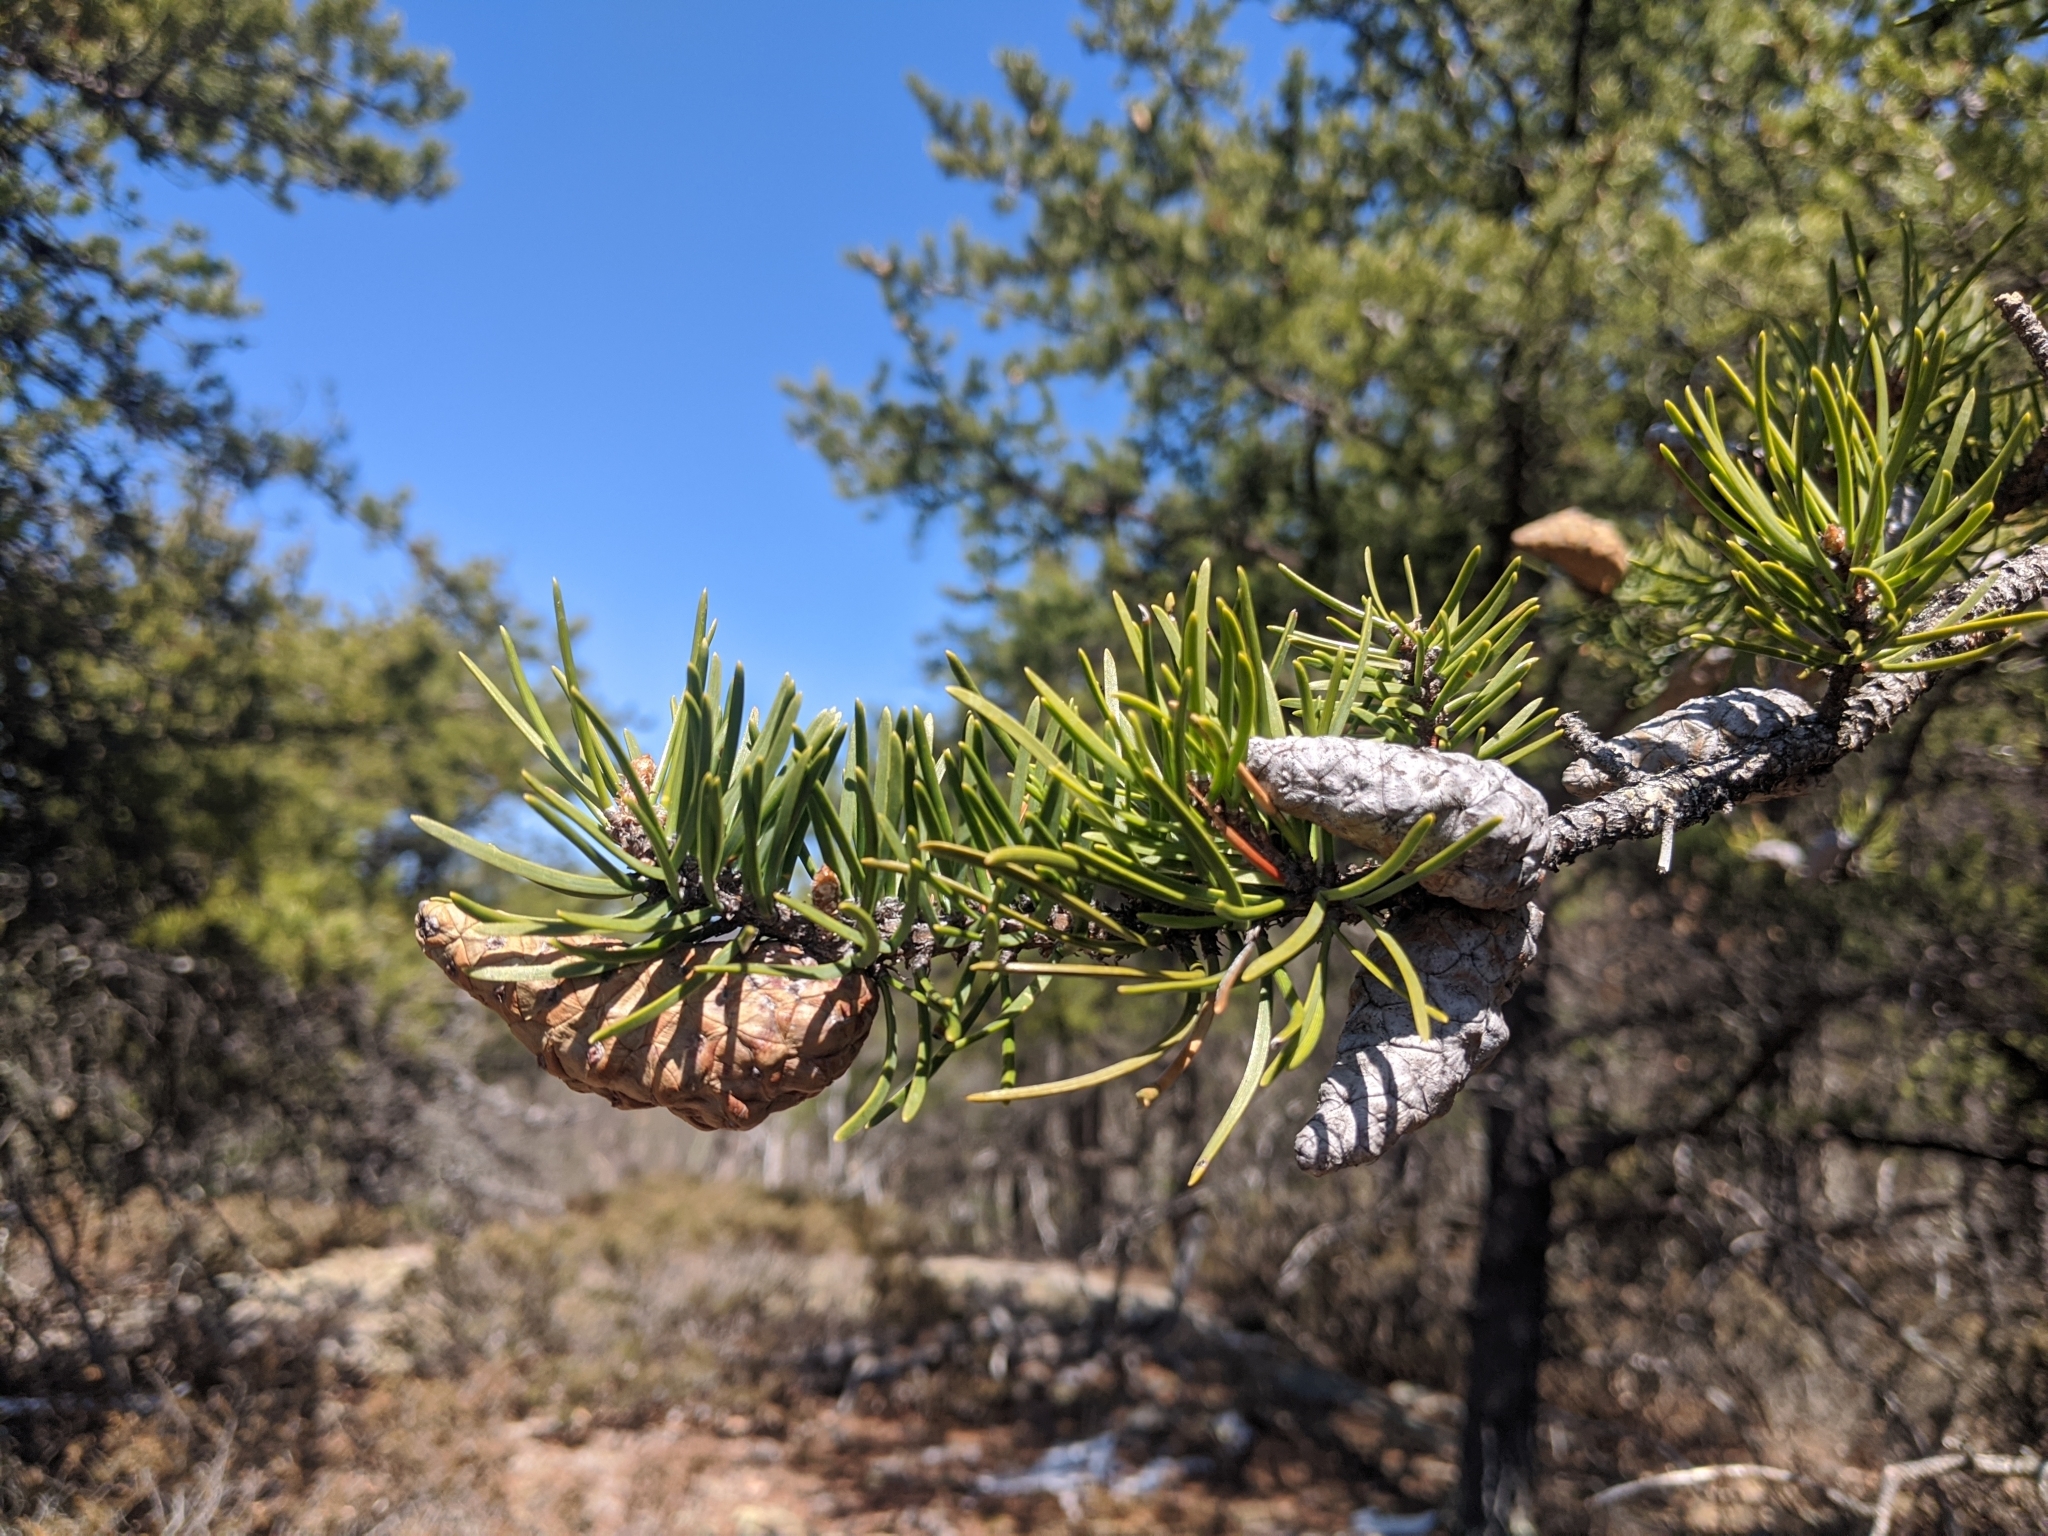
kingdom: Plantae
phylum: Tracheophyta
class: Pinopsida
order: Pinales
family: Pinaceae
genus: Pinus
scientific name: Pinus banksiana
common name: Jack pine
